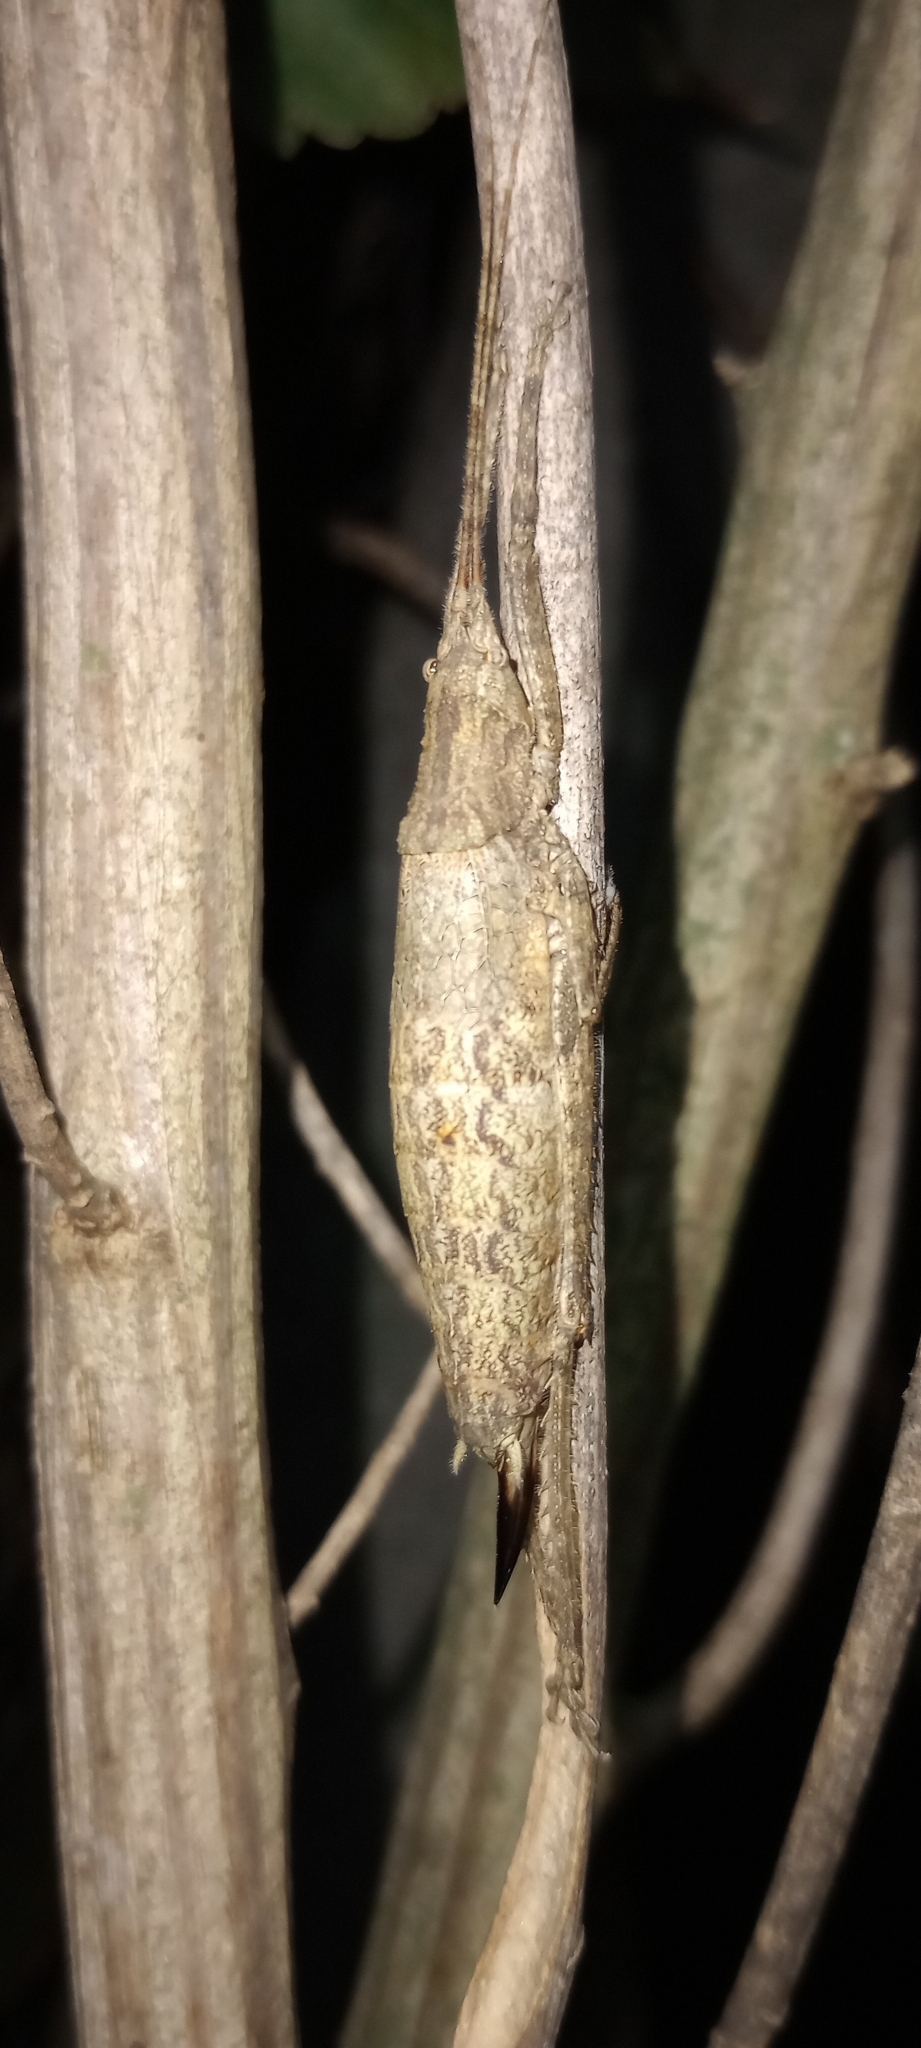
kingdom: Animalia
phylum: Arthropoda
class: Insecta
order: Orthoptera
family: Tettigoniidae
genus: Dasyscelus
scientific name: Dasyscelus normalis
